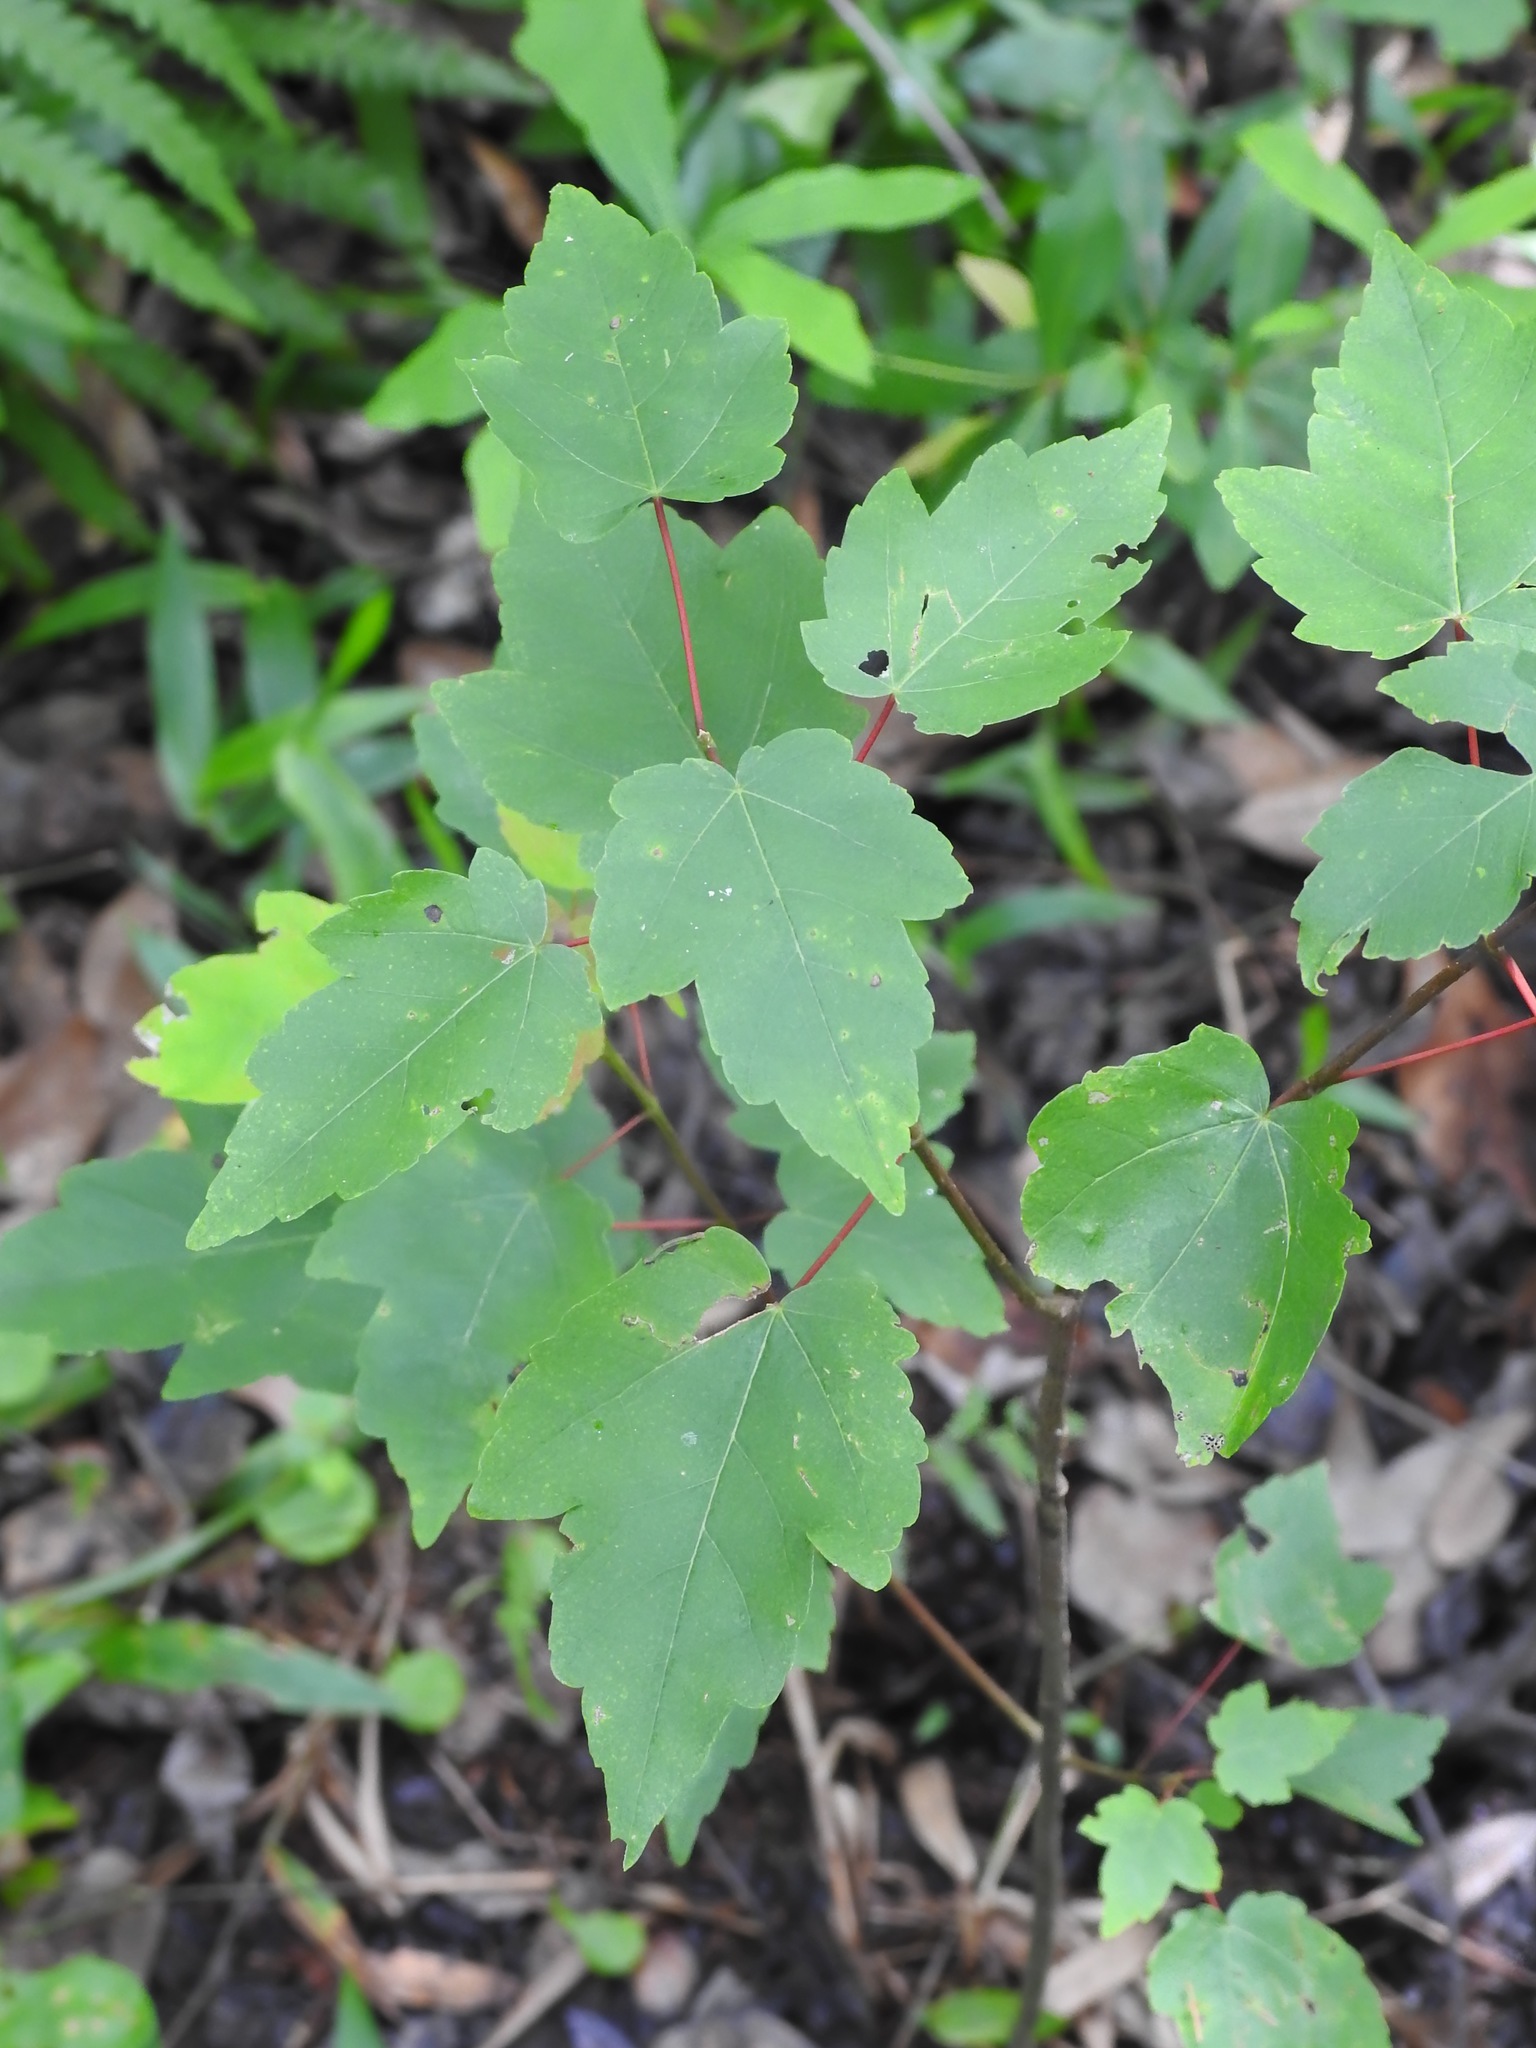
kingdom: Plantae
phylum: Tracheophyta
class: Magnoliopsida
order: Sapindales
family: Sapindaceae
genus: Acer
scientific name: Acer rubrum
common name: Red maple
